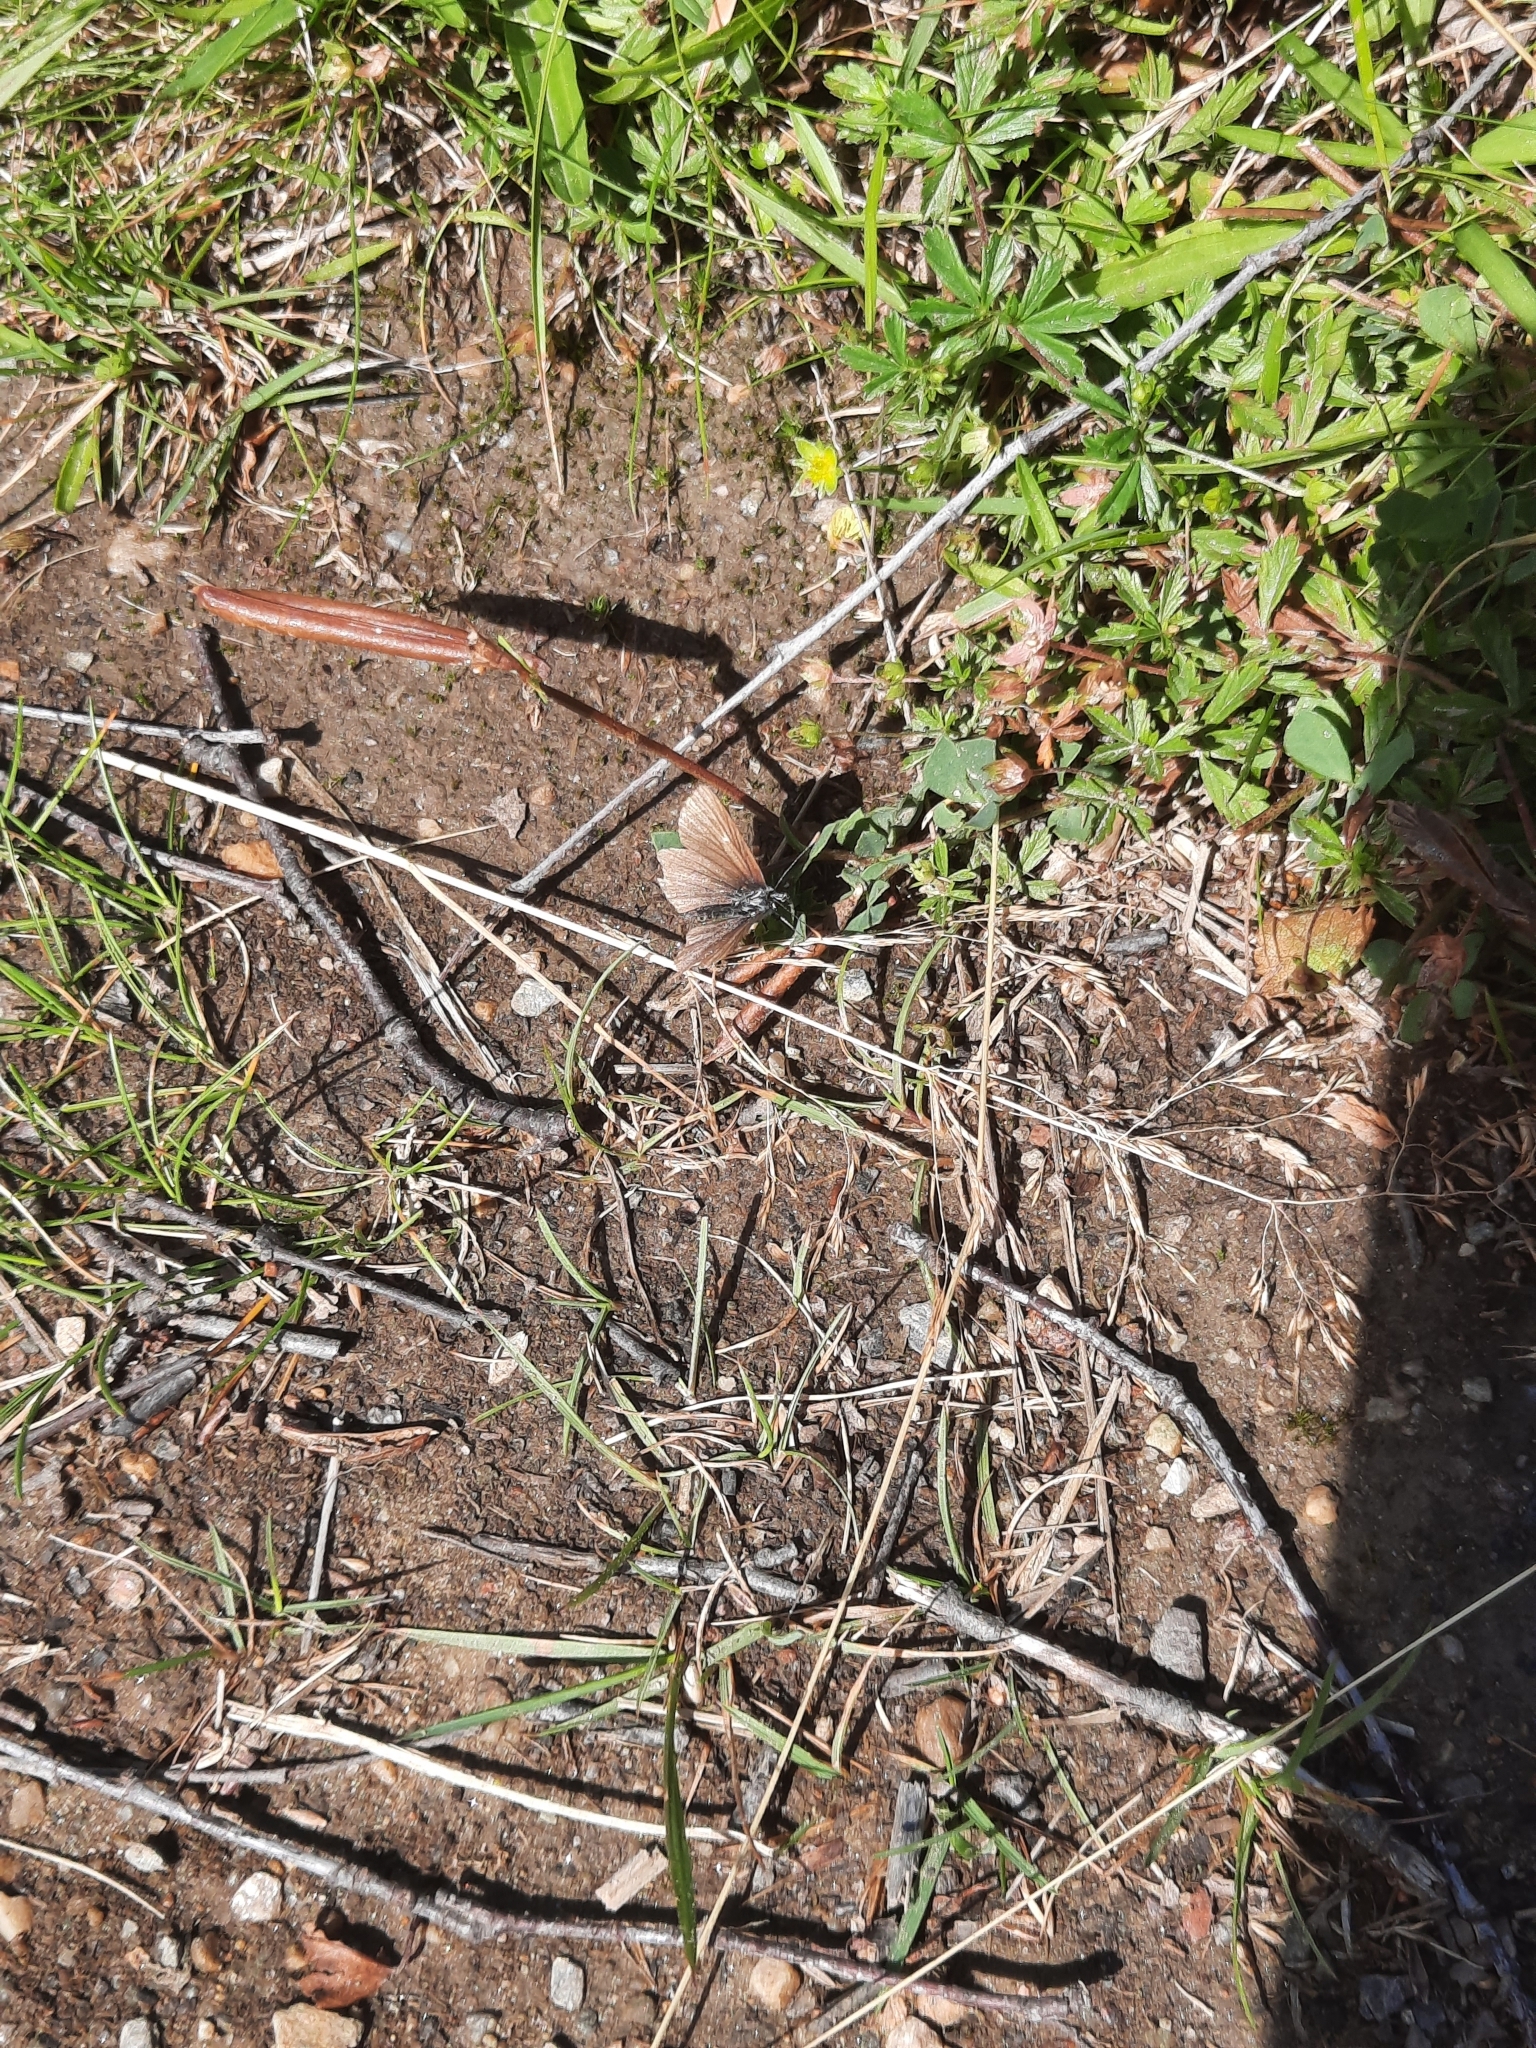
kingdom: Animalia
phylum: Arthropoda
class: Insecta
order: Lepidoptera
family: Lycaenidae
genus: Aricia
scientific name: Aricia artaxerxes
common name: Northern brown argus
